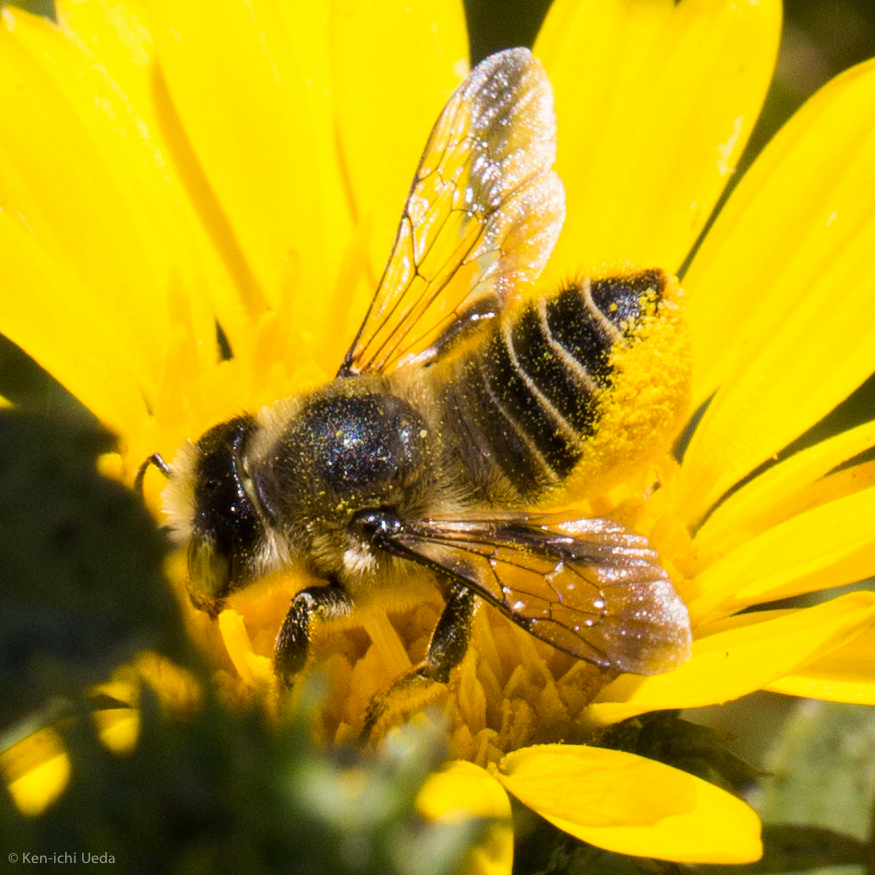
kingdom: Animalia
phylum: Arthropoda
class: Insecta
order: Hymenoptera
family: Megachilidae
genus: Megachile
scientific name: Megachile perihirta
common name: Western leafcutter
